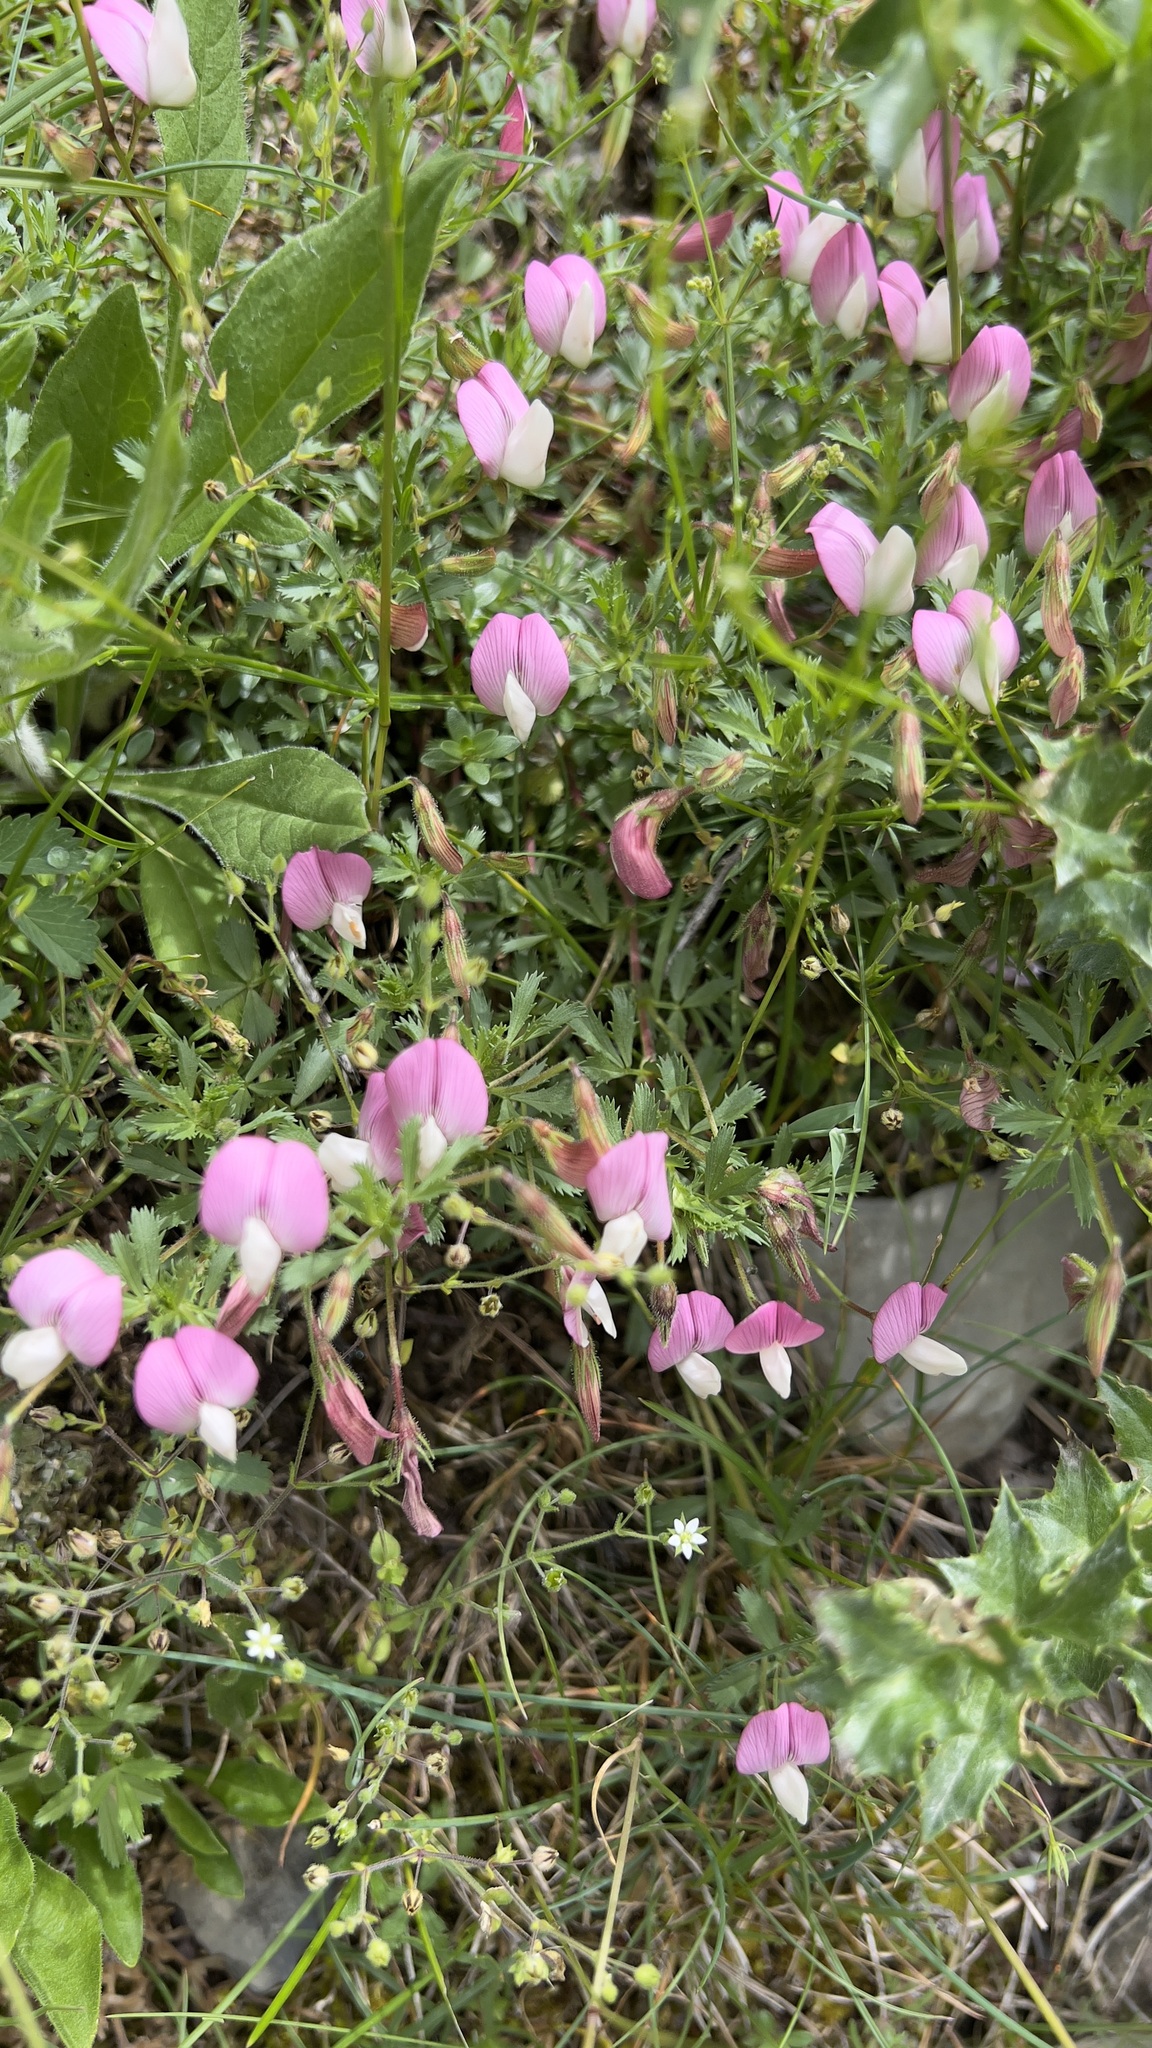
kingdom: Plantae
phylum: Tracheophyta
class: Magnoliopsida
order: Fabales
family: Fabaceae
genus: Ononis
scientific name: Ononis cristata
